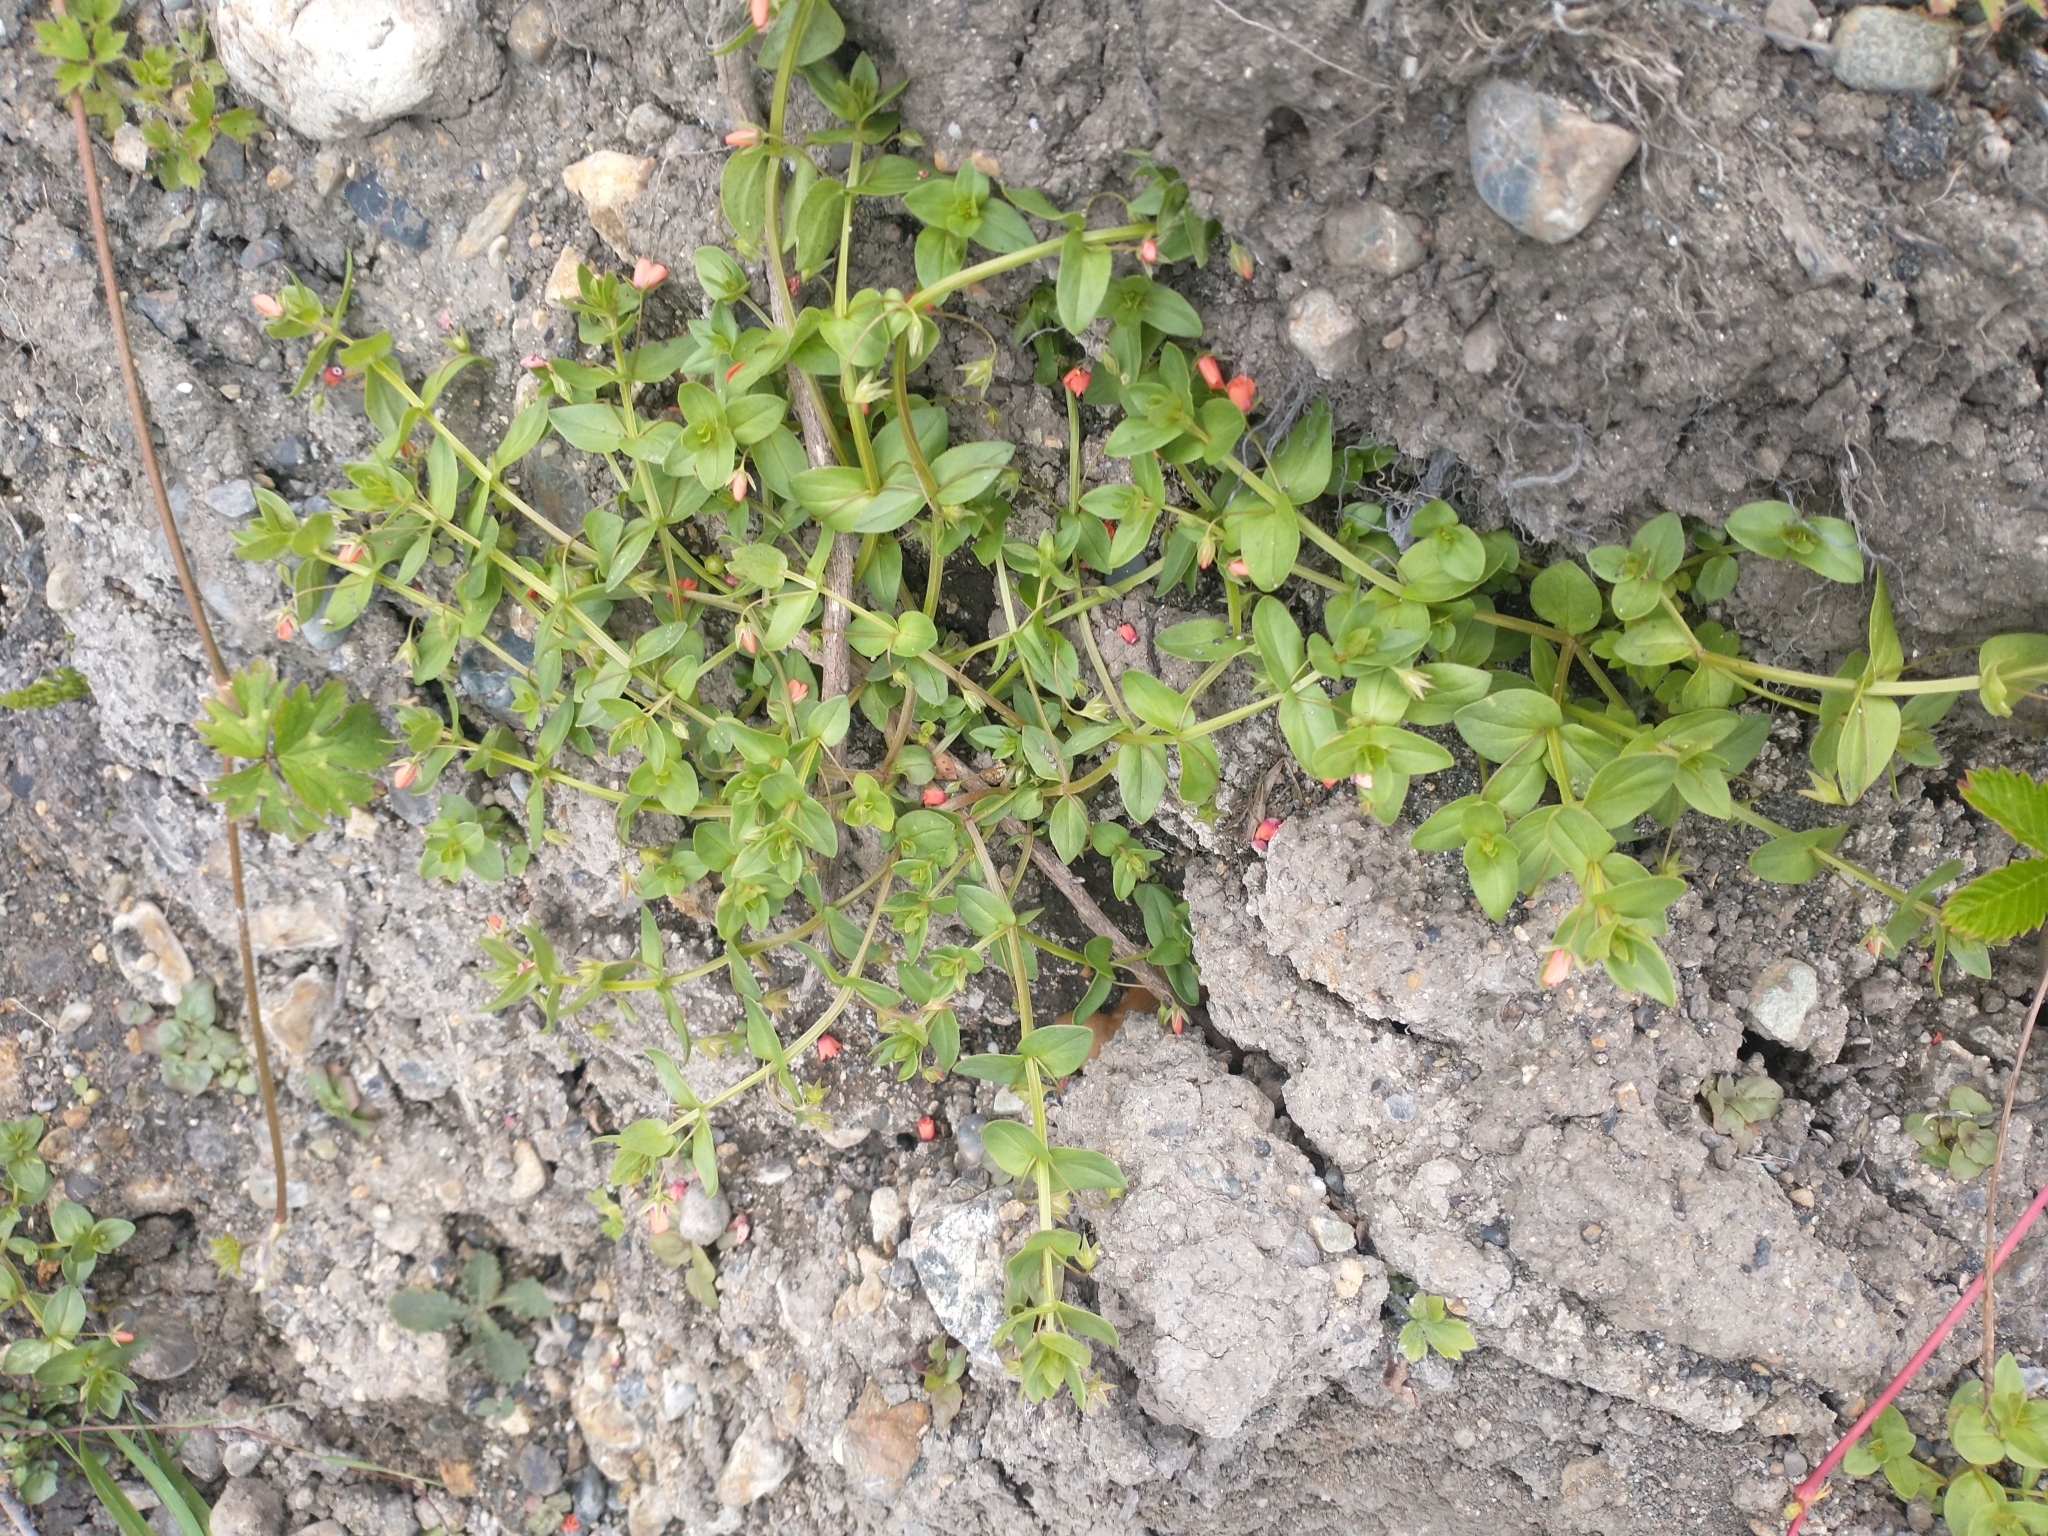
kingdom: Plantae
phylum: Tracheophyta
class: Magnoliopsida
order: Ericales
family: Primulaceae
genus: Lysimachia
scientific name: Lysimachia arvensis
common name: Scarlet pimpernel
